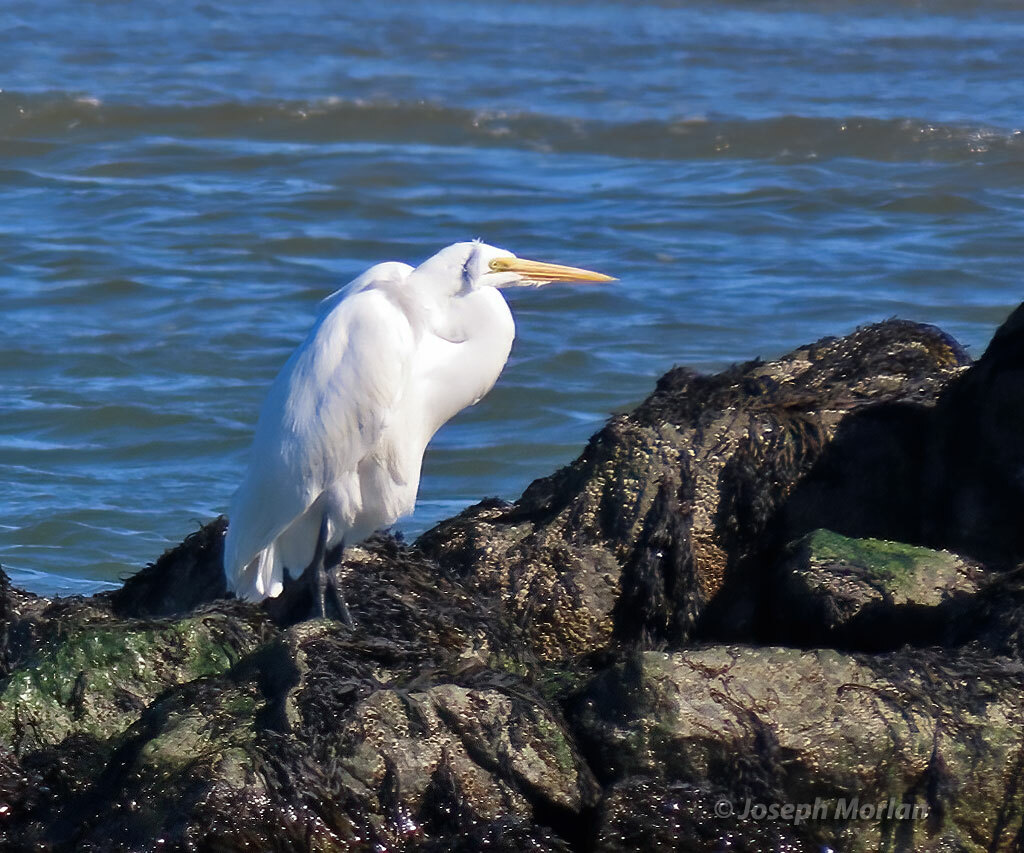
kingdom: Animalia
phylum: Chordata
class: Aves
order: Pelecaniformes
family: Ardeidae
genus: Ardea
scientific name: Ardea alba
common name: Great egret
